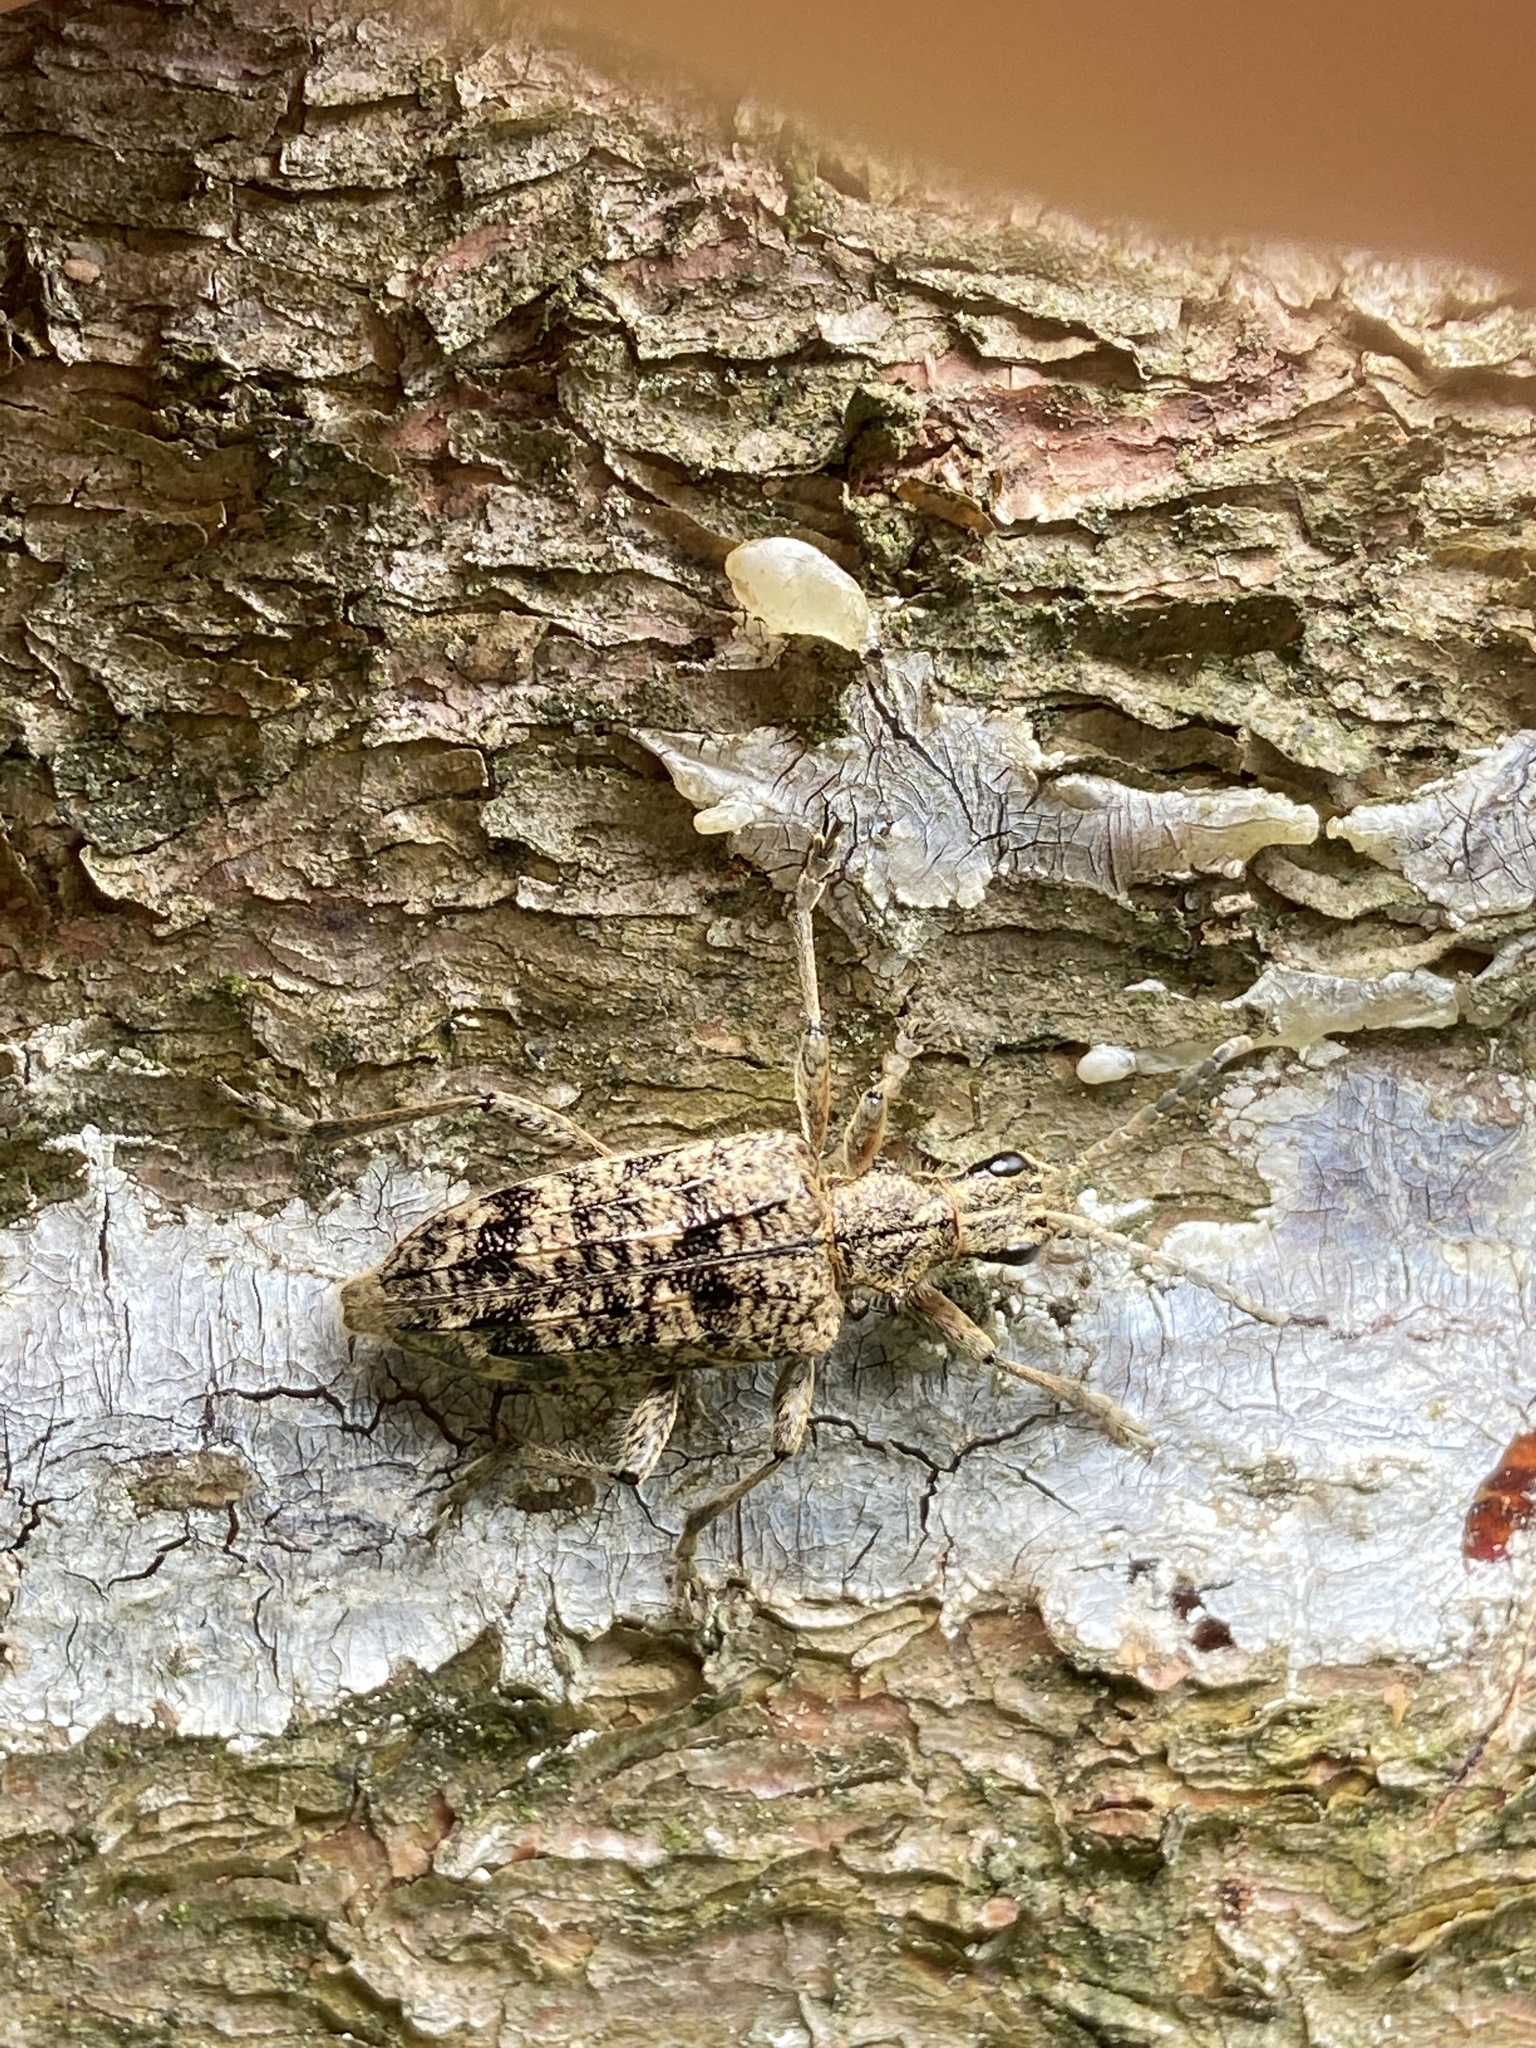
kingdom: Animalia
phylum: Arthropoda
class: Insecta
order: Coleoptera
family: Cerambycidae
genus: Rhagium
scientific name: Rhagium inquisitor
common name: Ribbed pine borer
